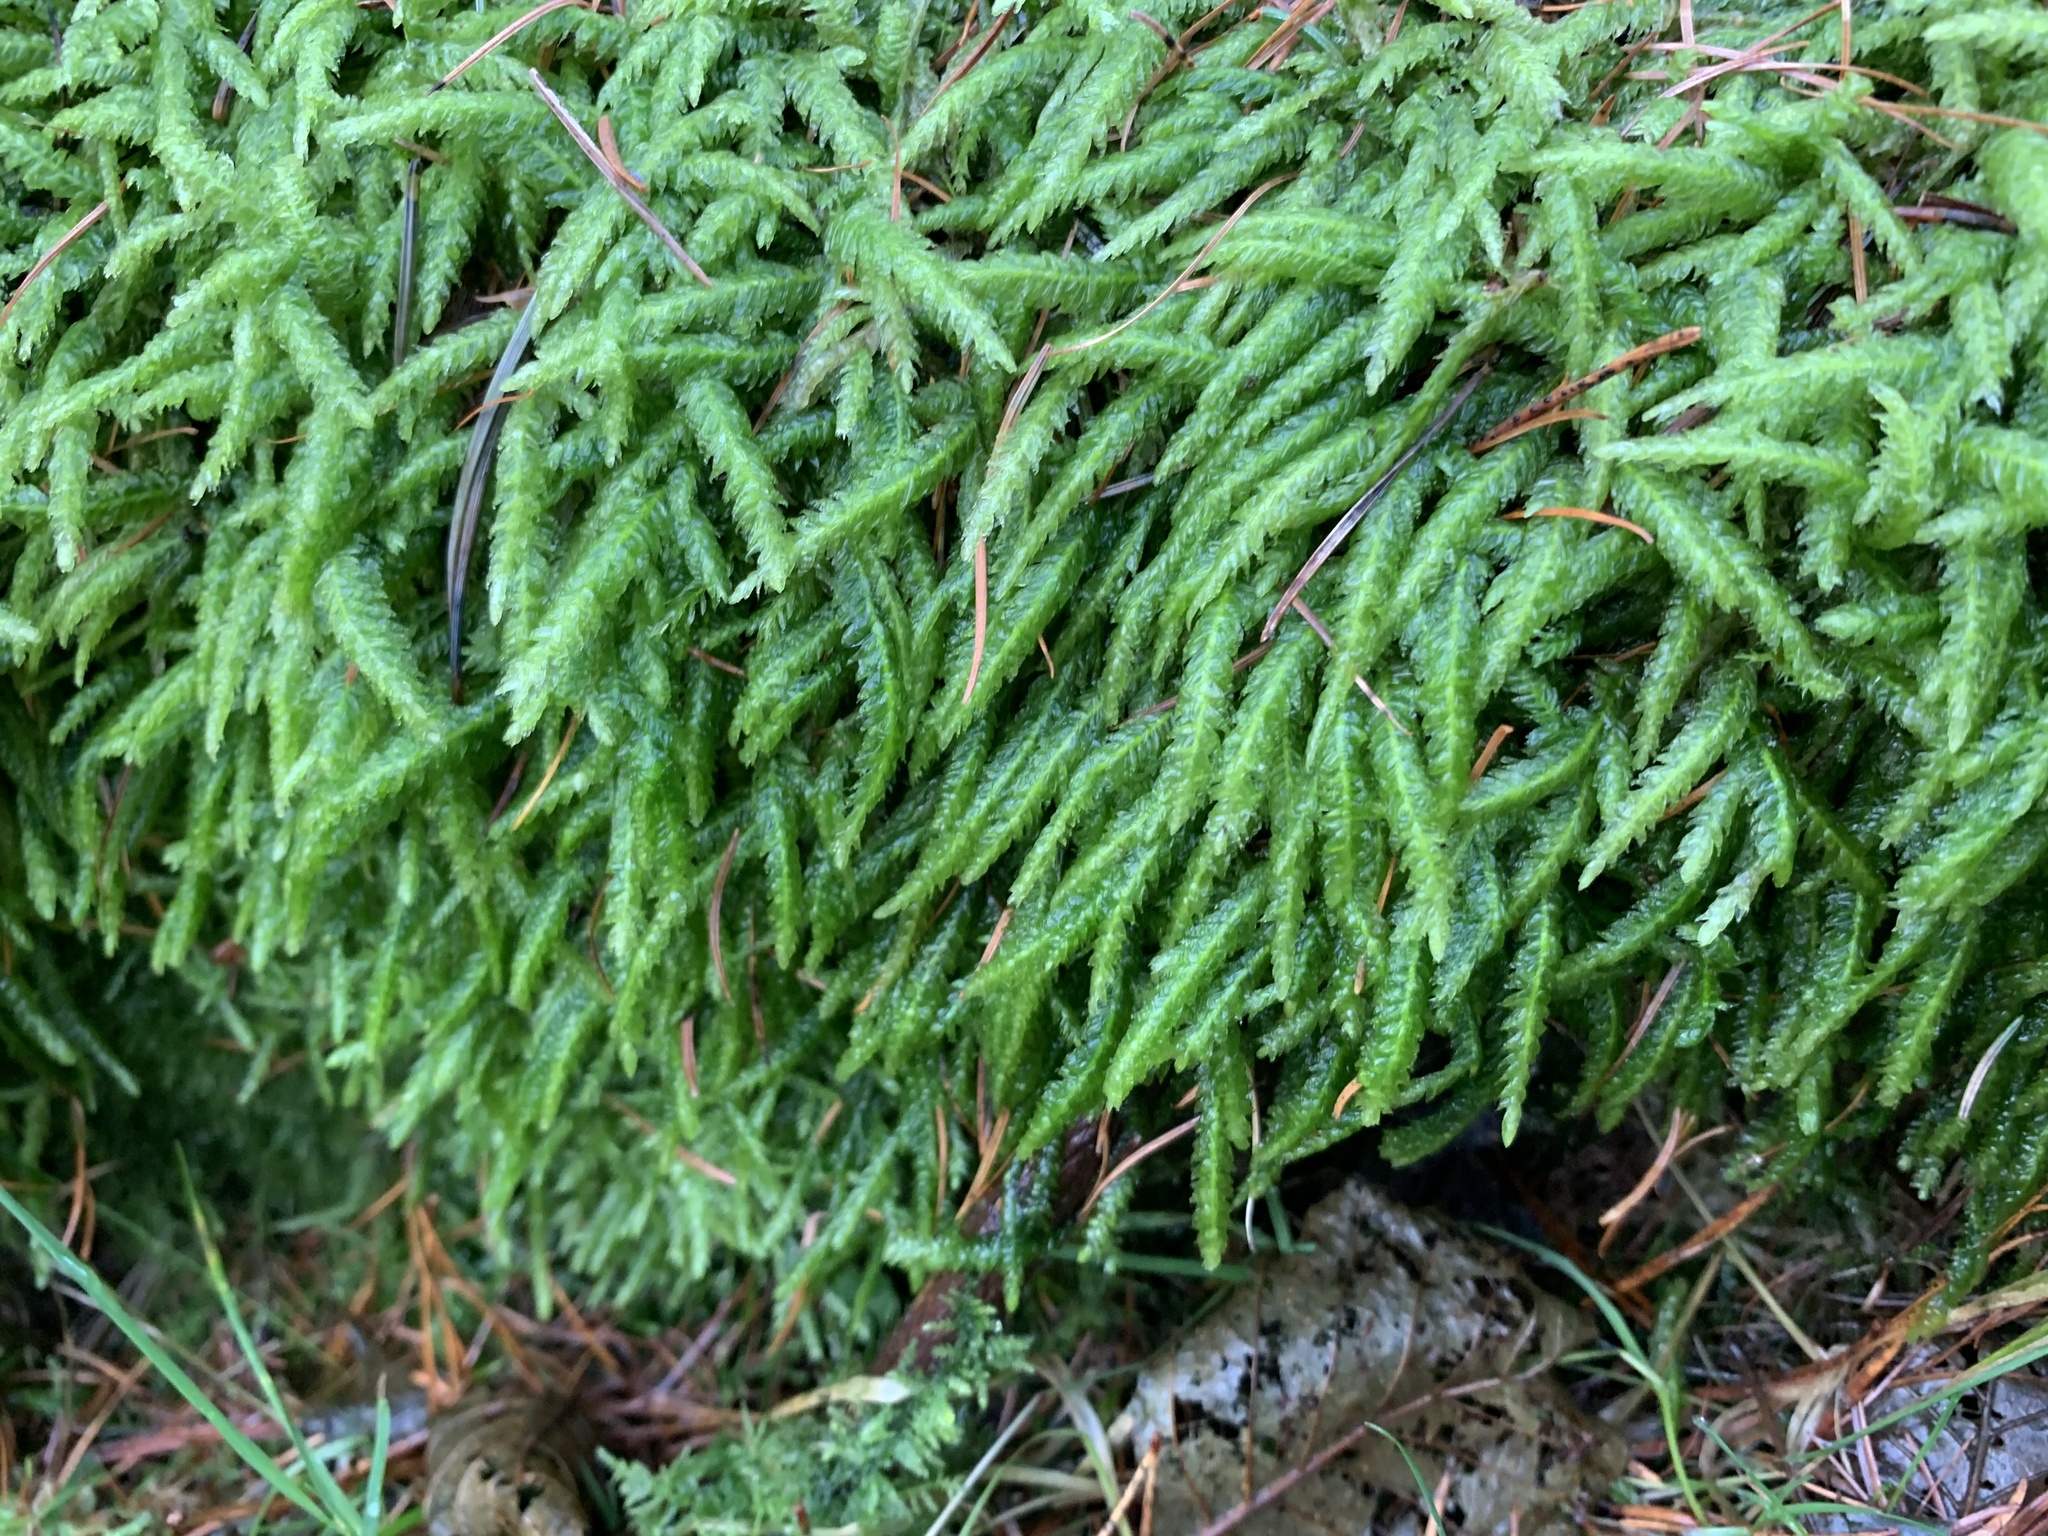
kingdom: Plantae
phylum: Bryophyta
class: Bryopsida
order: Hypnales
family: Plagiotheciaceae
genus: Plagiothecium
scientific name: Plagiothecium undulatum
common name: Waved silk-moss
